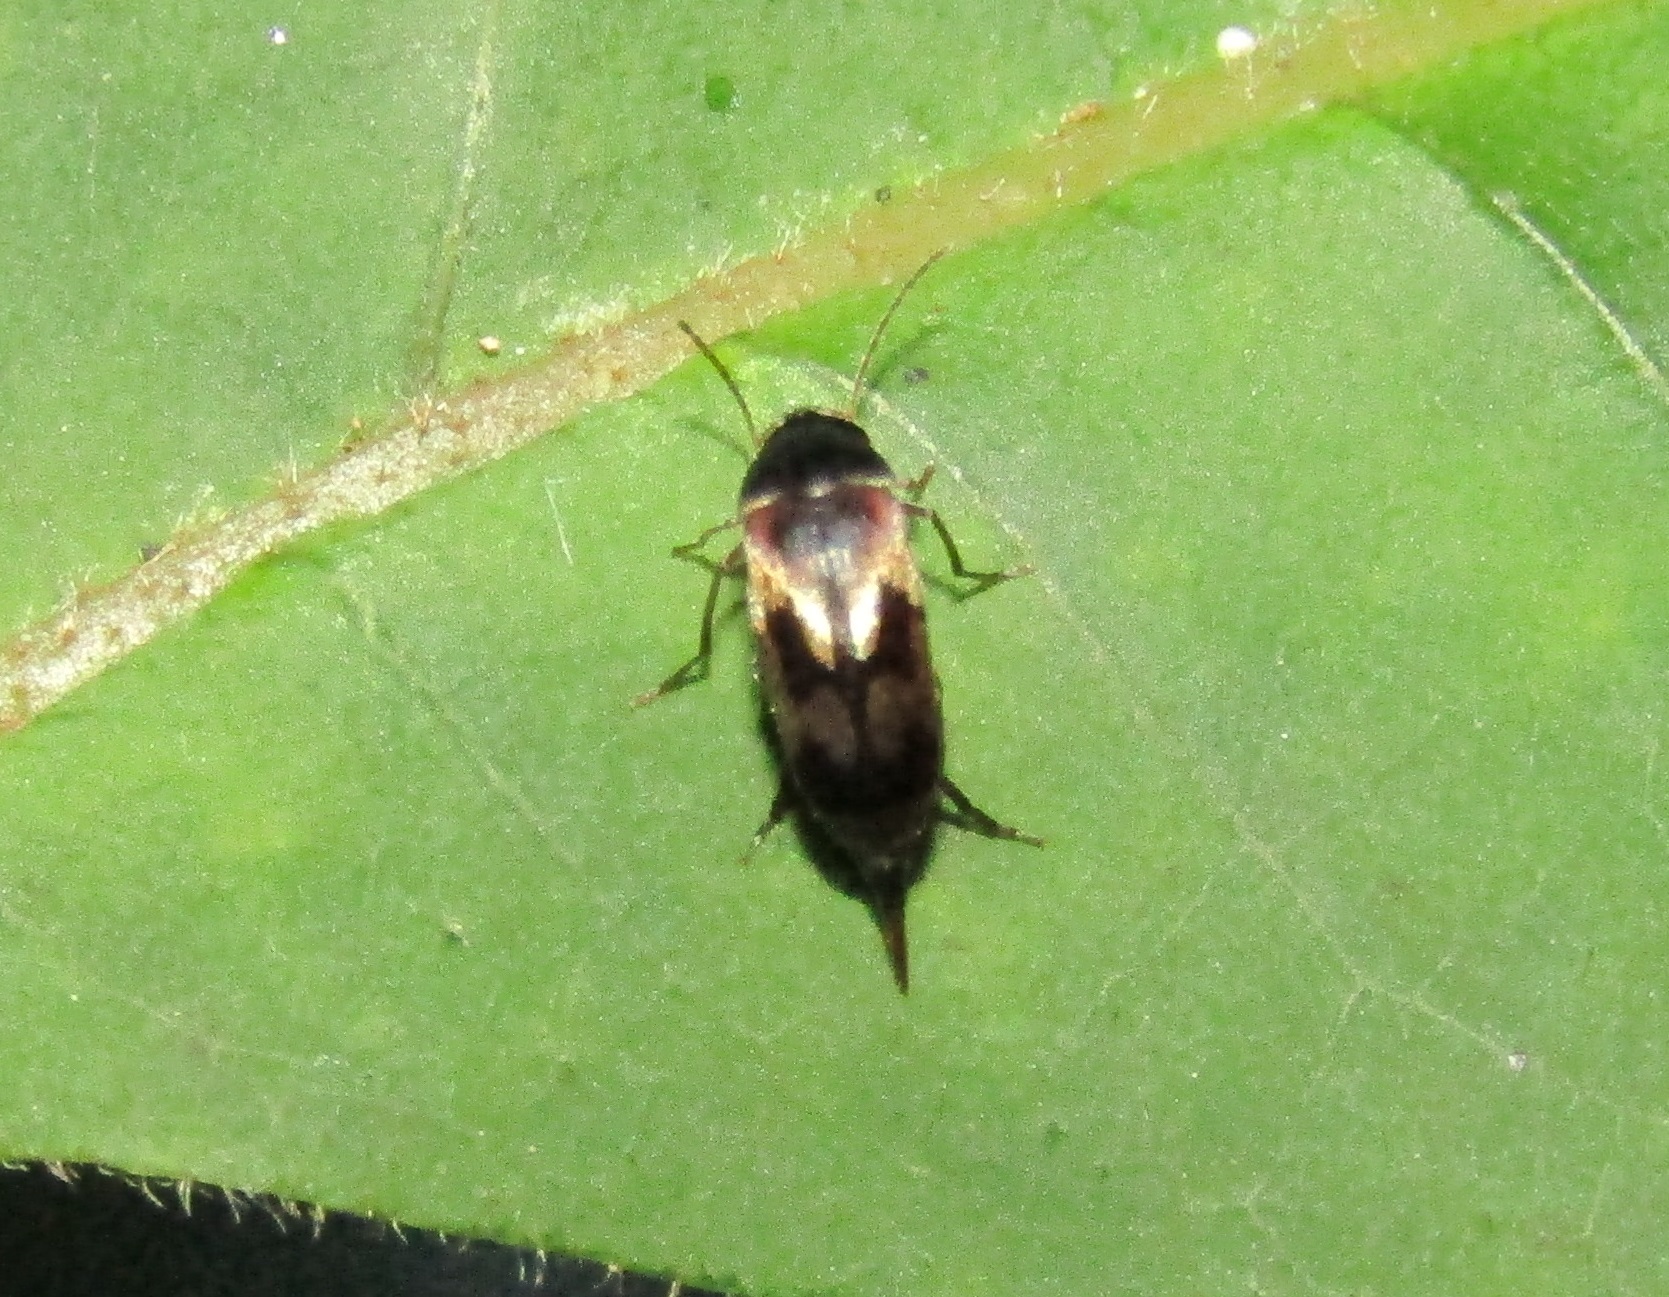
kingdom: Animalia
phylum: Arthropoda
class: Insecta
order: Coleoptera
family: Mordellidae
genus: Falsomordellistena
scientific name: Falsomordellistena bihamata
